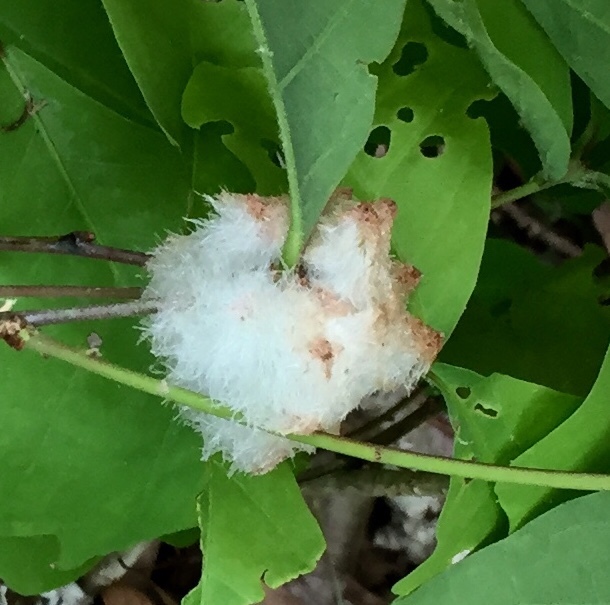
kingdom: Animalia
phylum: Arthropoda
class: Insecta
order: Hymenoptera
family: Cynipidae
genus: Callirhytis
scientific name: Callirhytis
